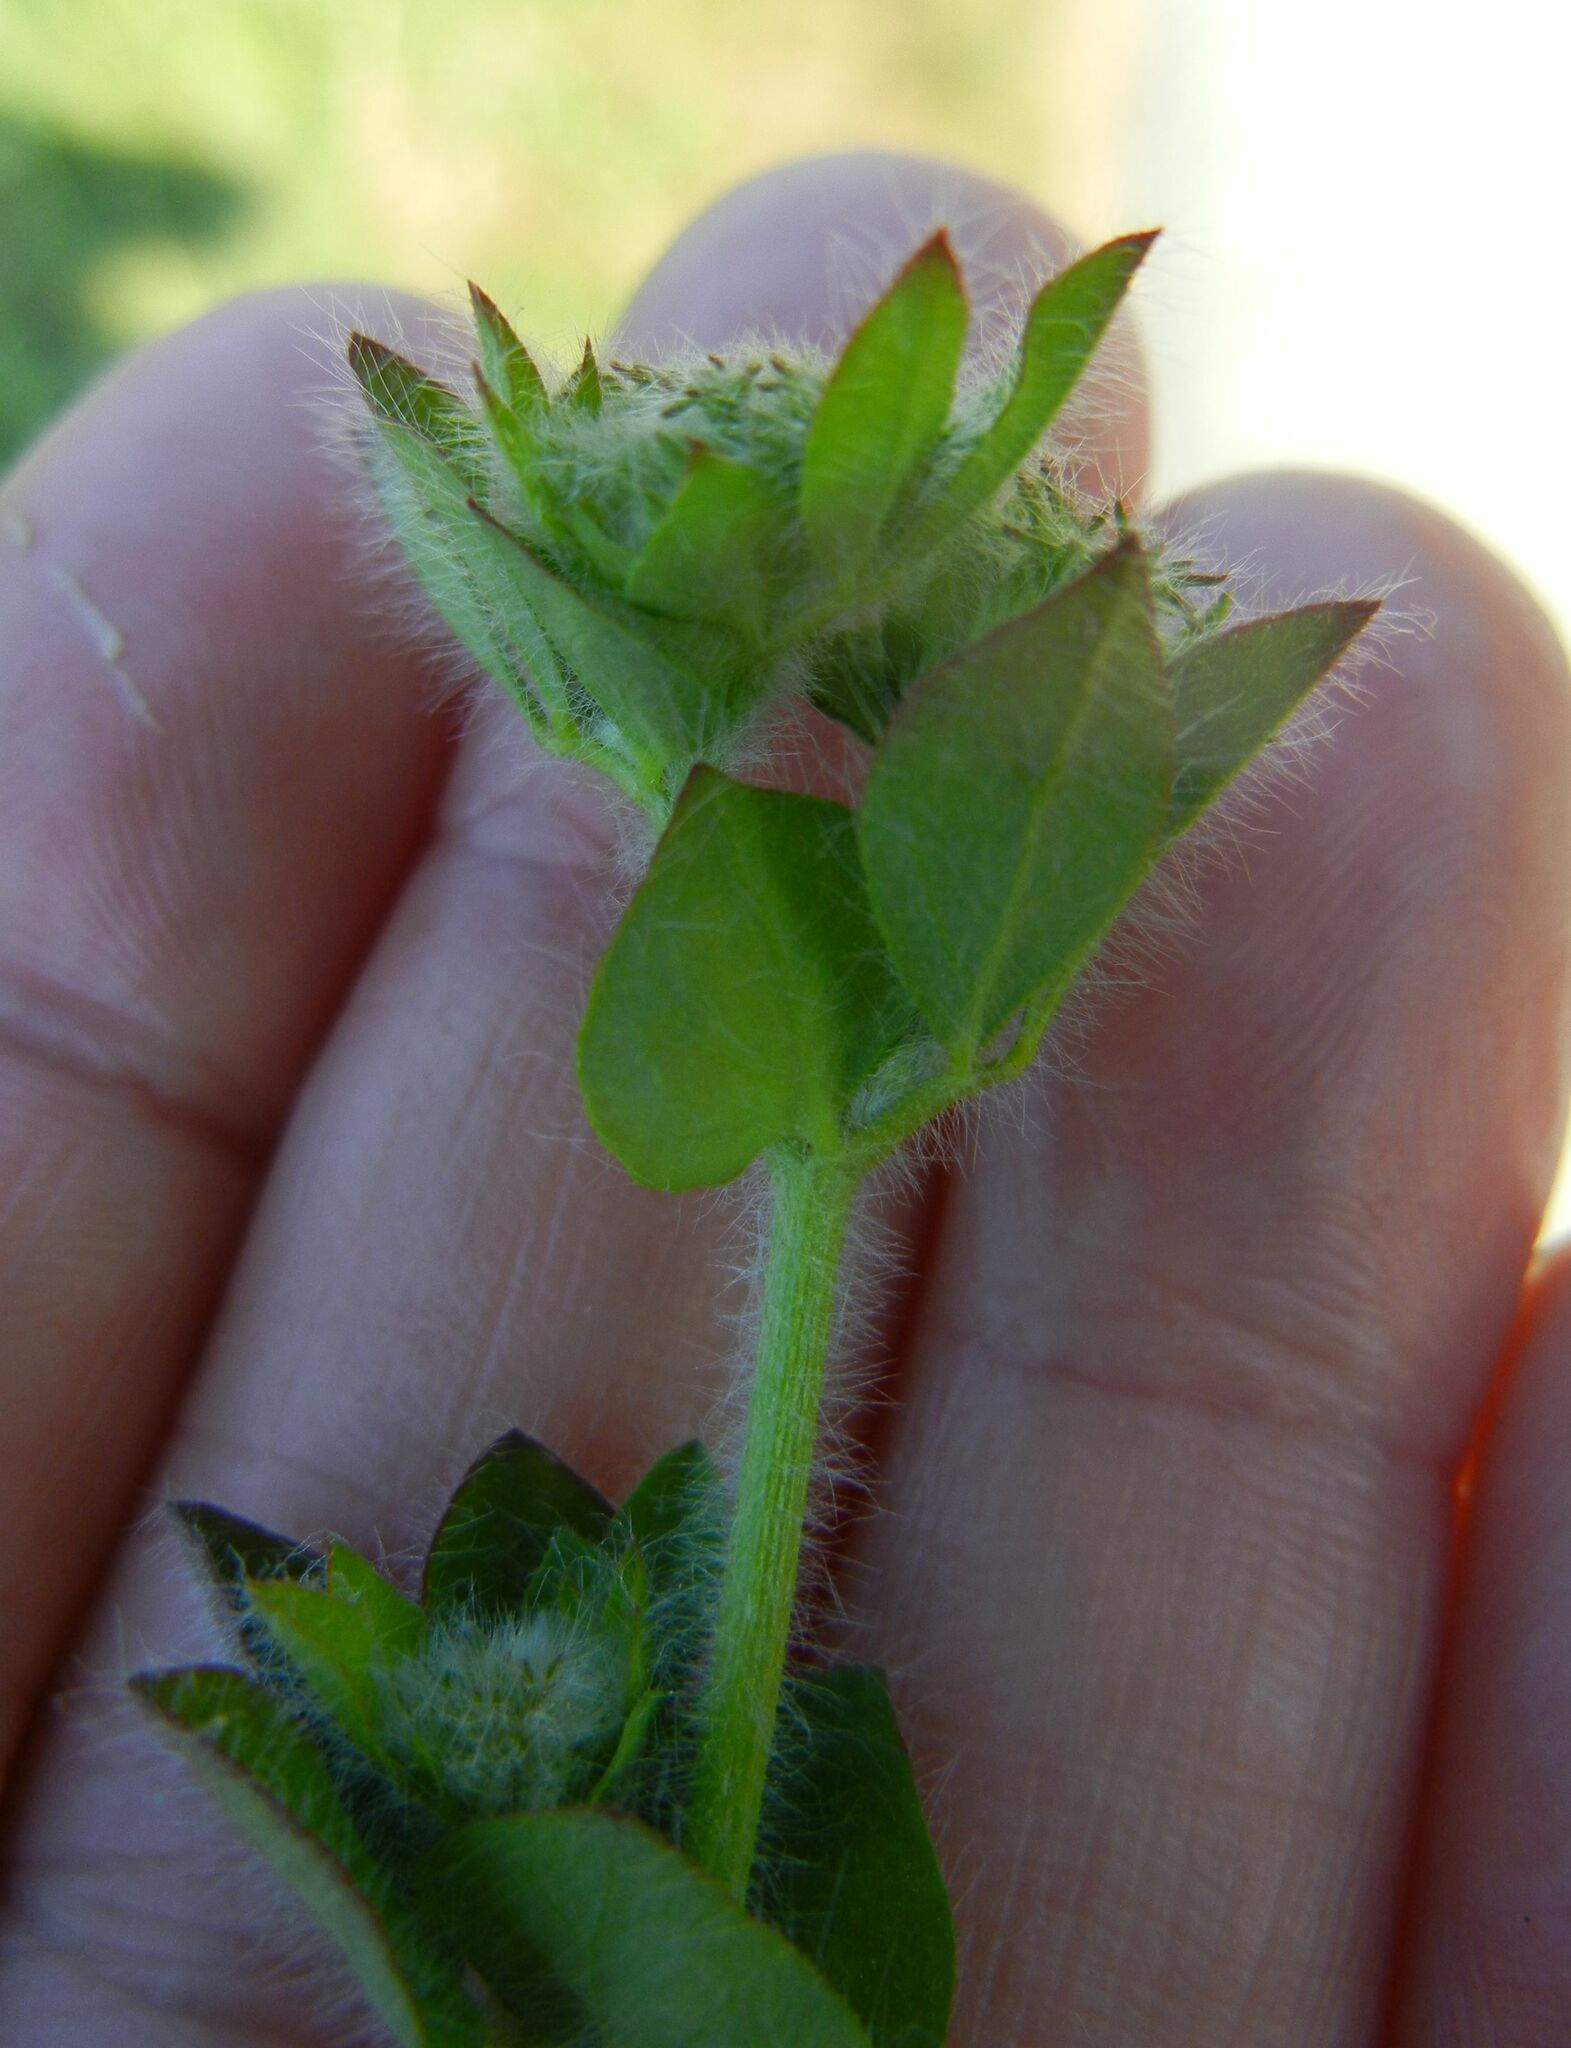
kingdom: Plantae
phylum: Tracheophyta
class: Magnoliopsida
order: Fabales
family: Fabaceae
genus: Lotus
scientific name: Lotus pedunculatus
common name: Greater birdsfoot-trefoil
